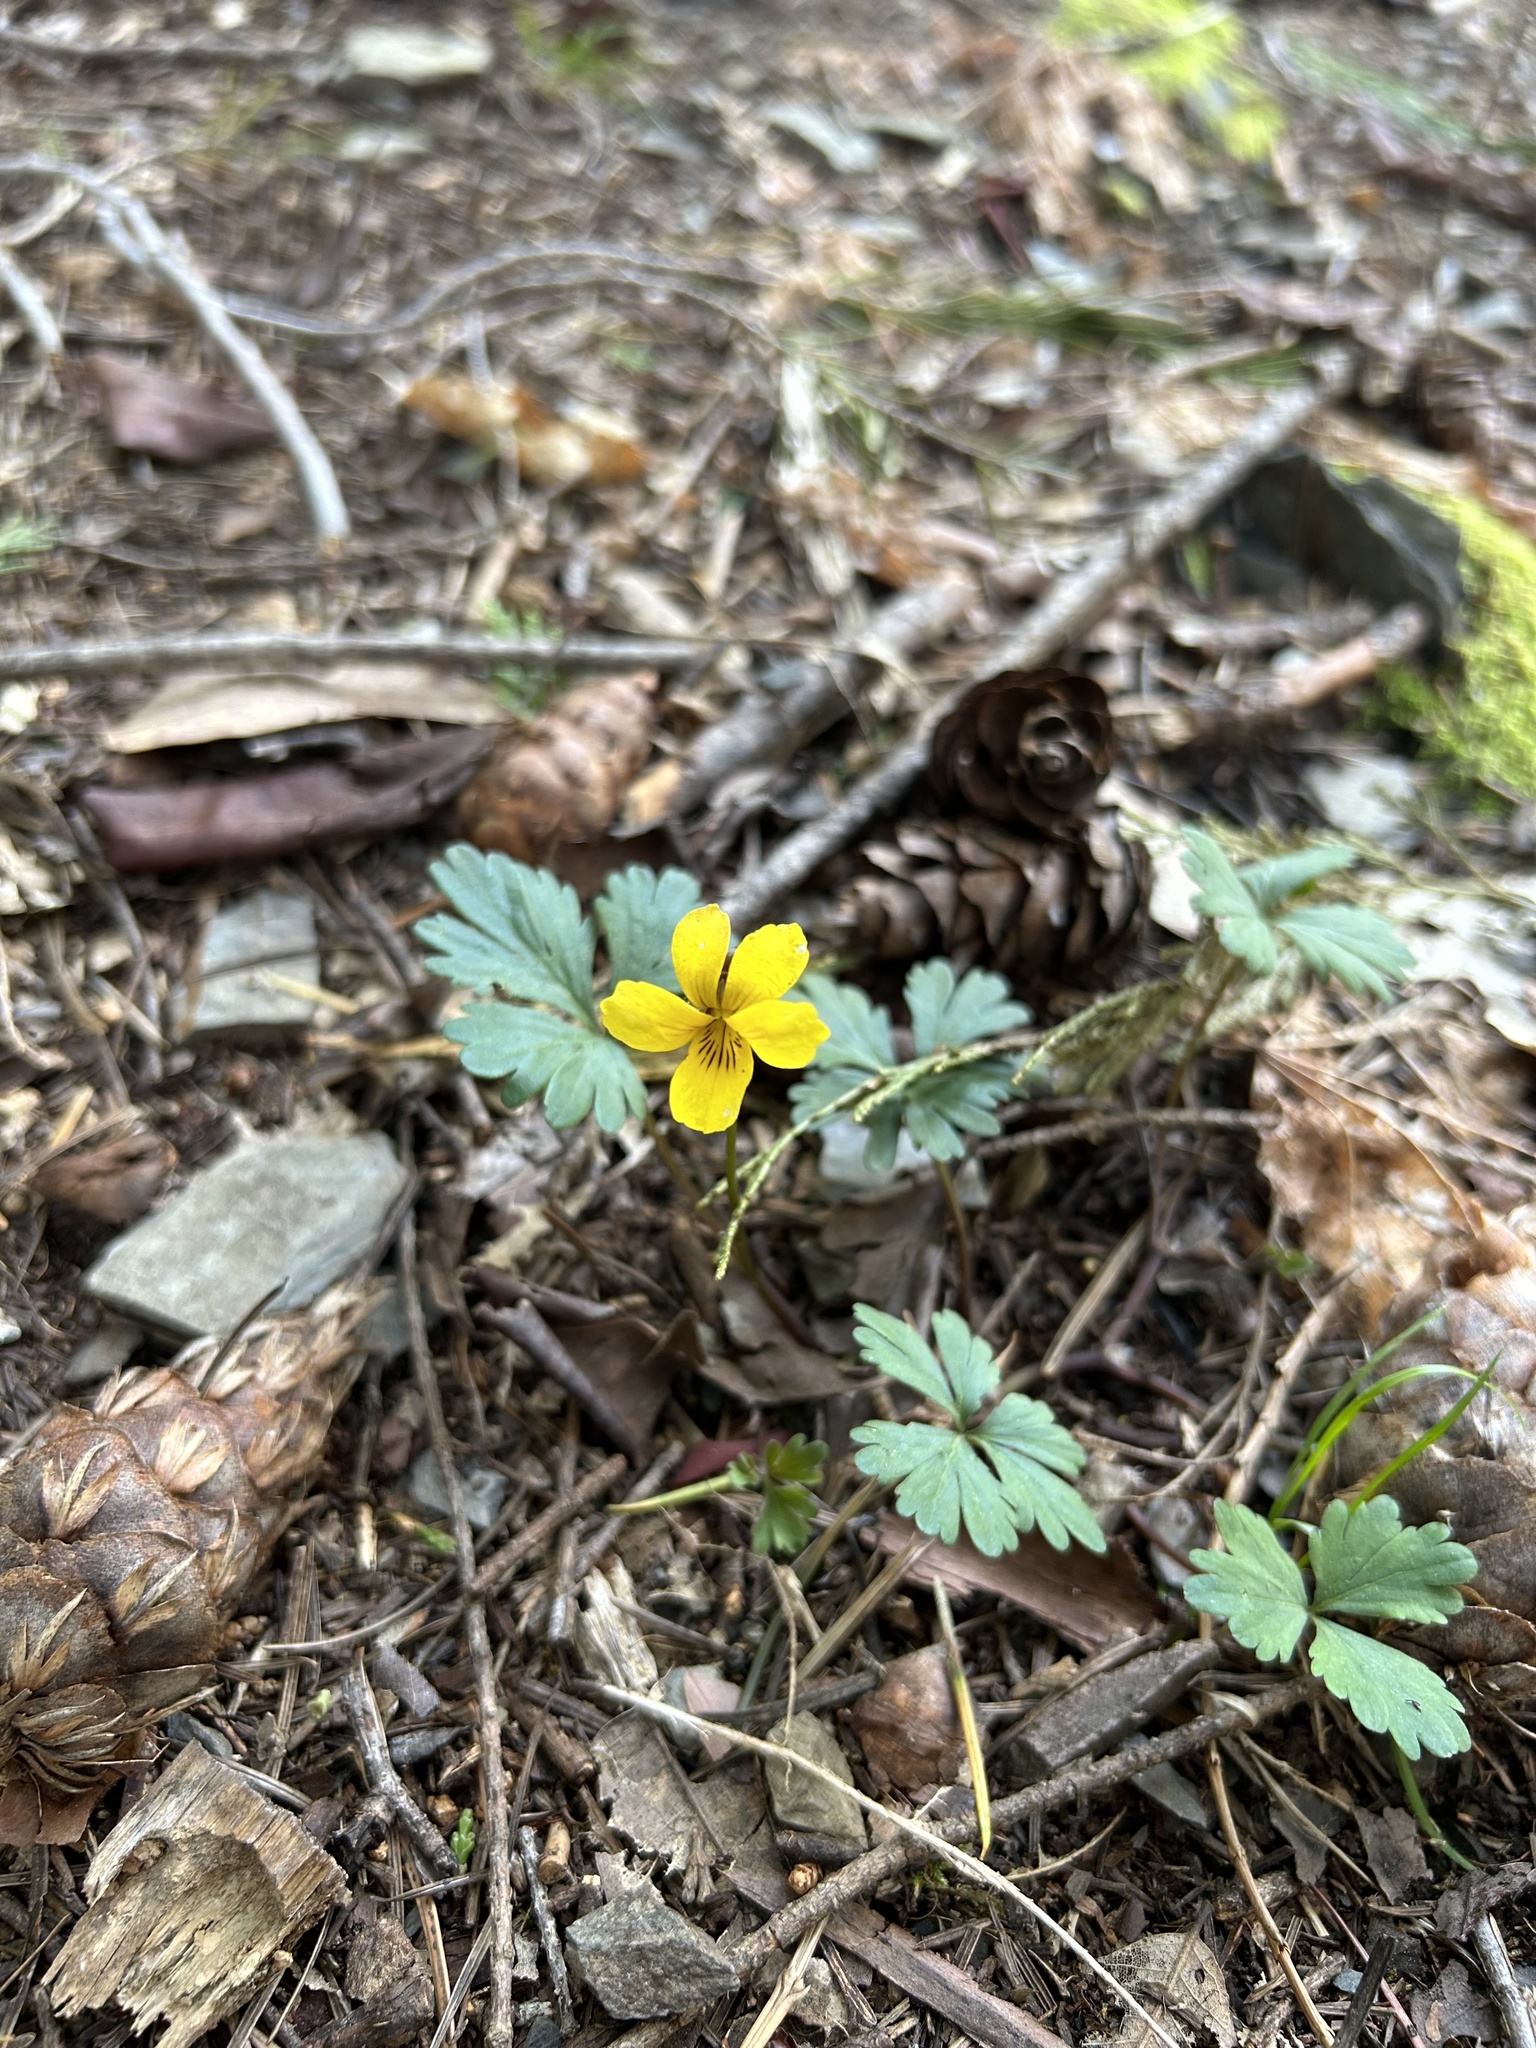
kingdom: Plantae
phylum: Tracheophyta
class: Magnoliopsida
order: Malpighiales
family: Violaceae
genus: Viola
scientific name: Viola sheltonii
